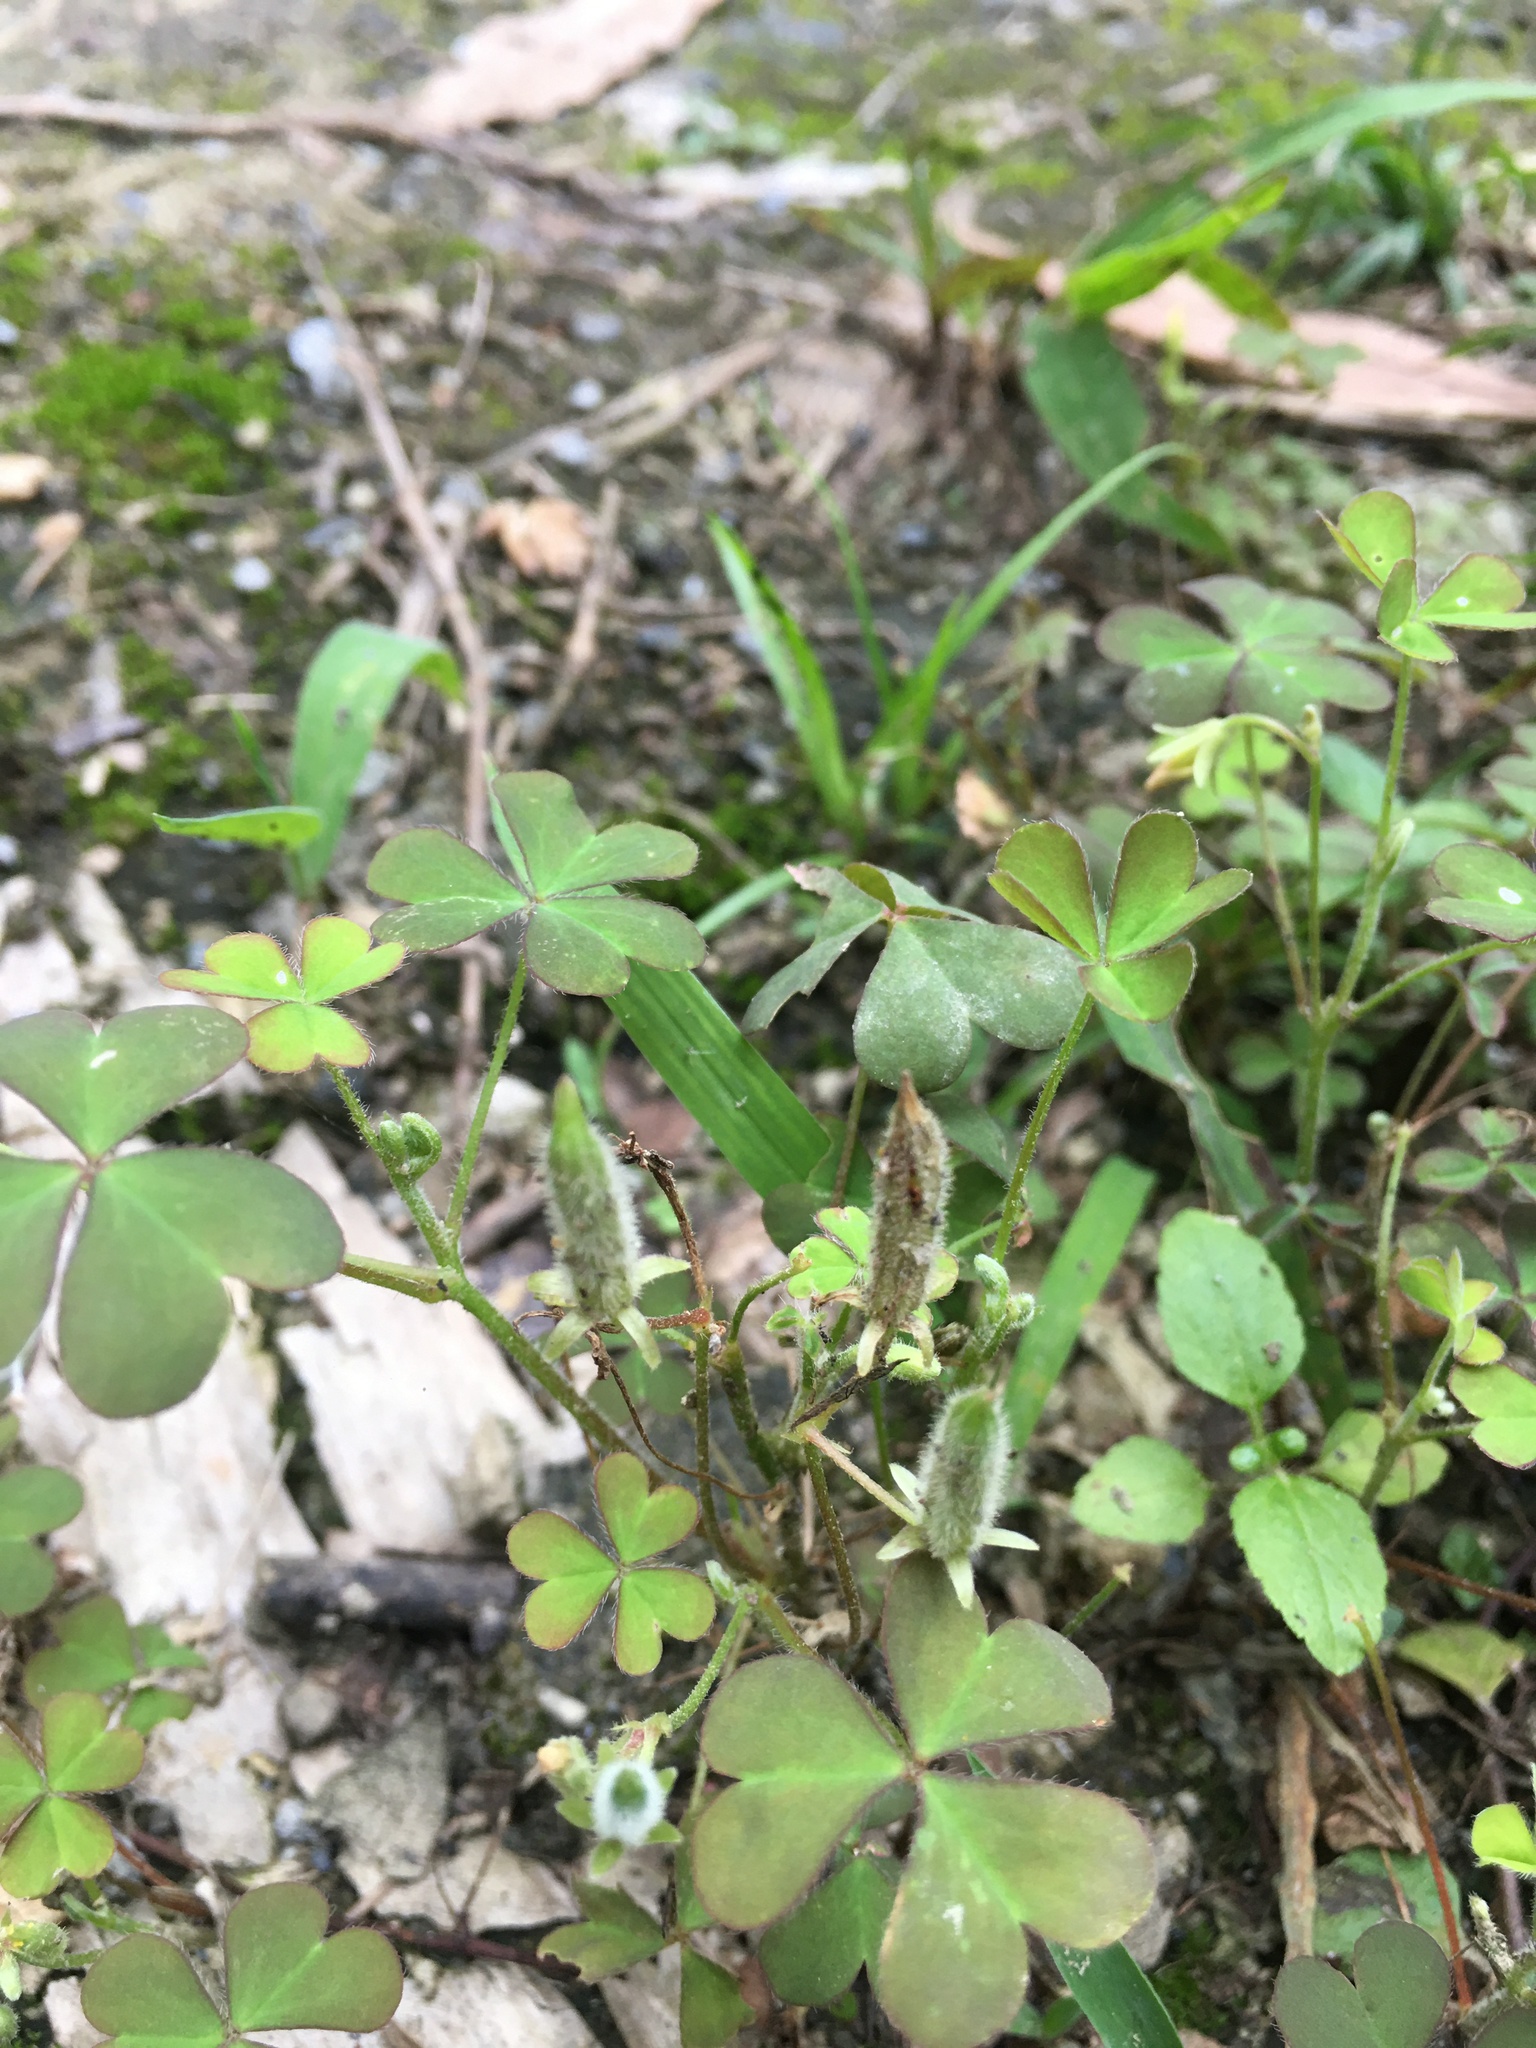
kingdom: Plantae
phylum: Tracheophyta
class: Magnoliopsida
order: Oxalidales
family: Oxalidaceae
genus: Oxalis
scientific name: Oxalis corniculata
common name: Procumbent yellow-sorrel
